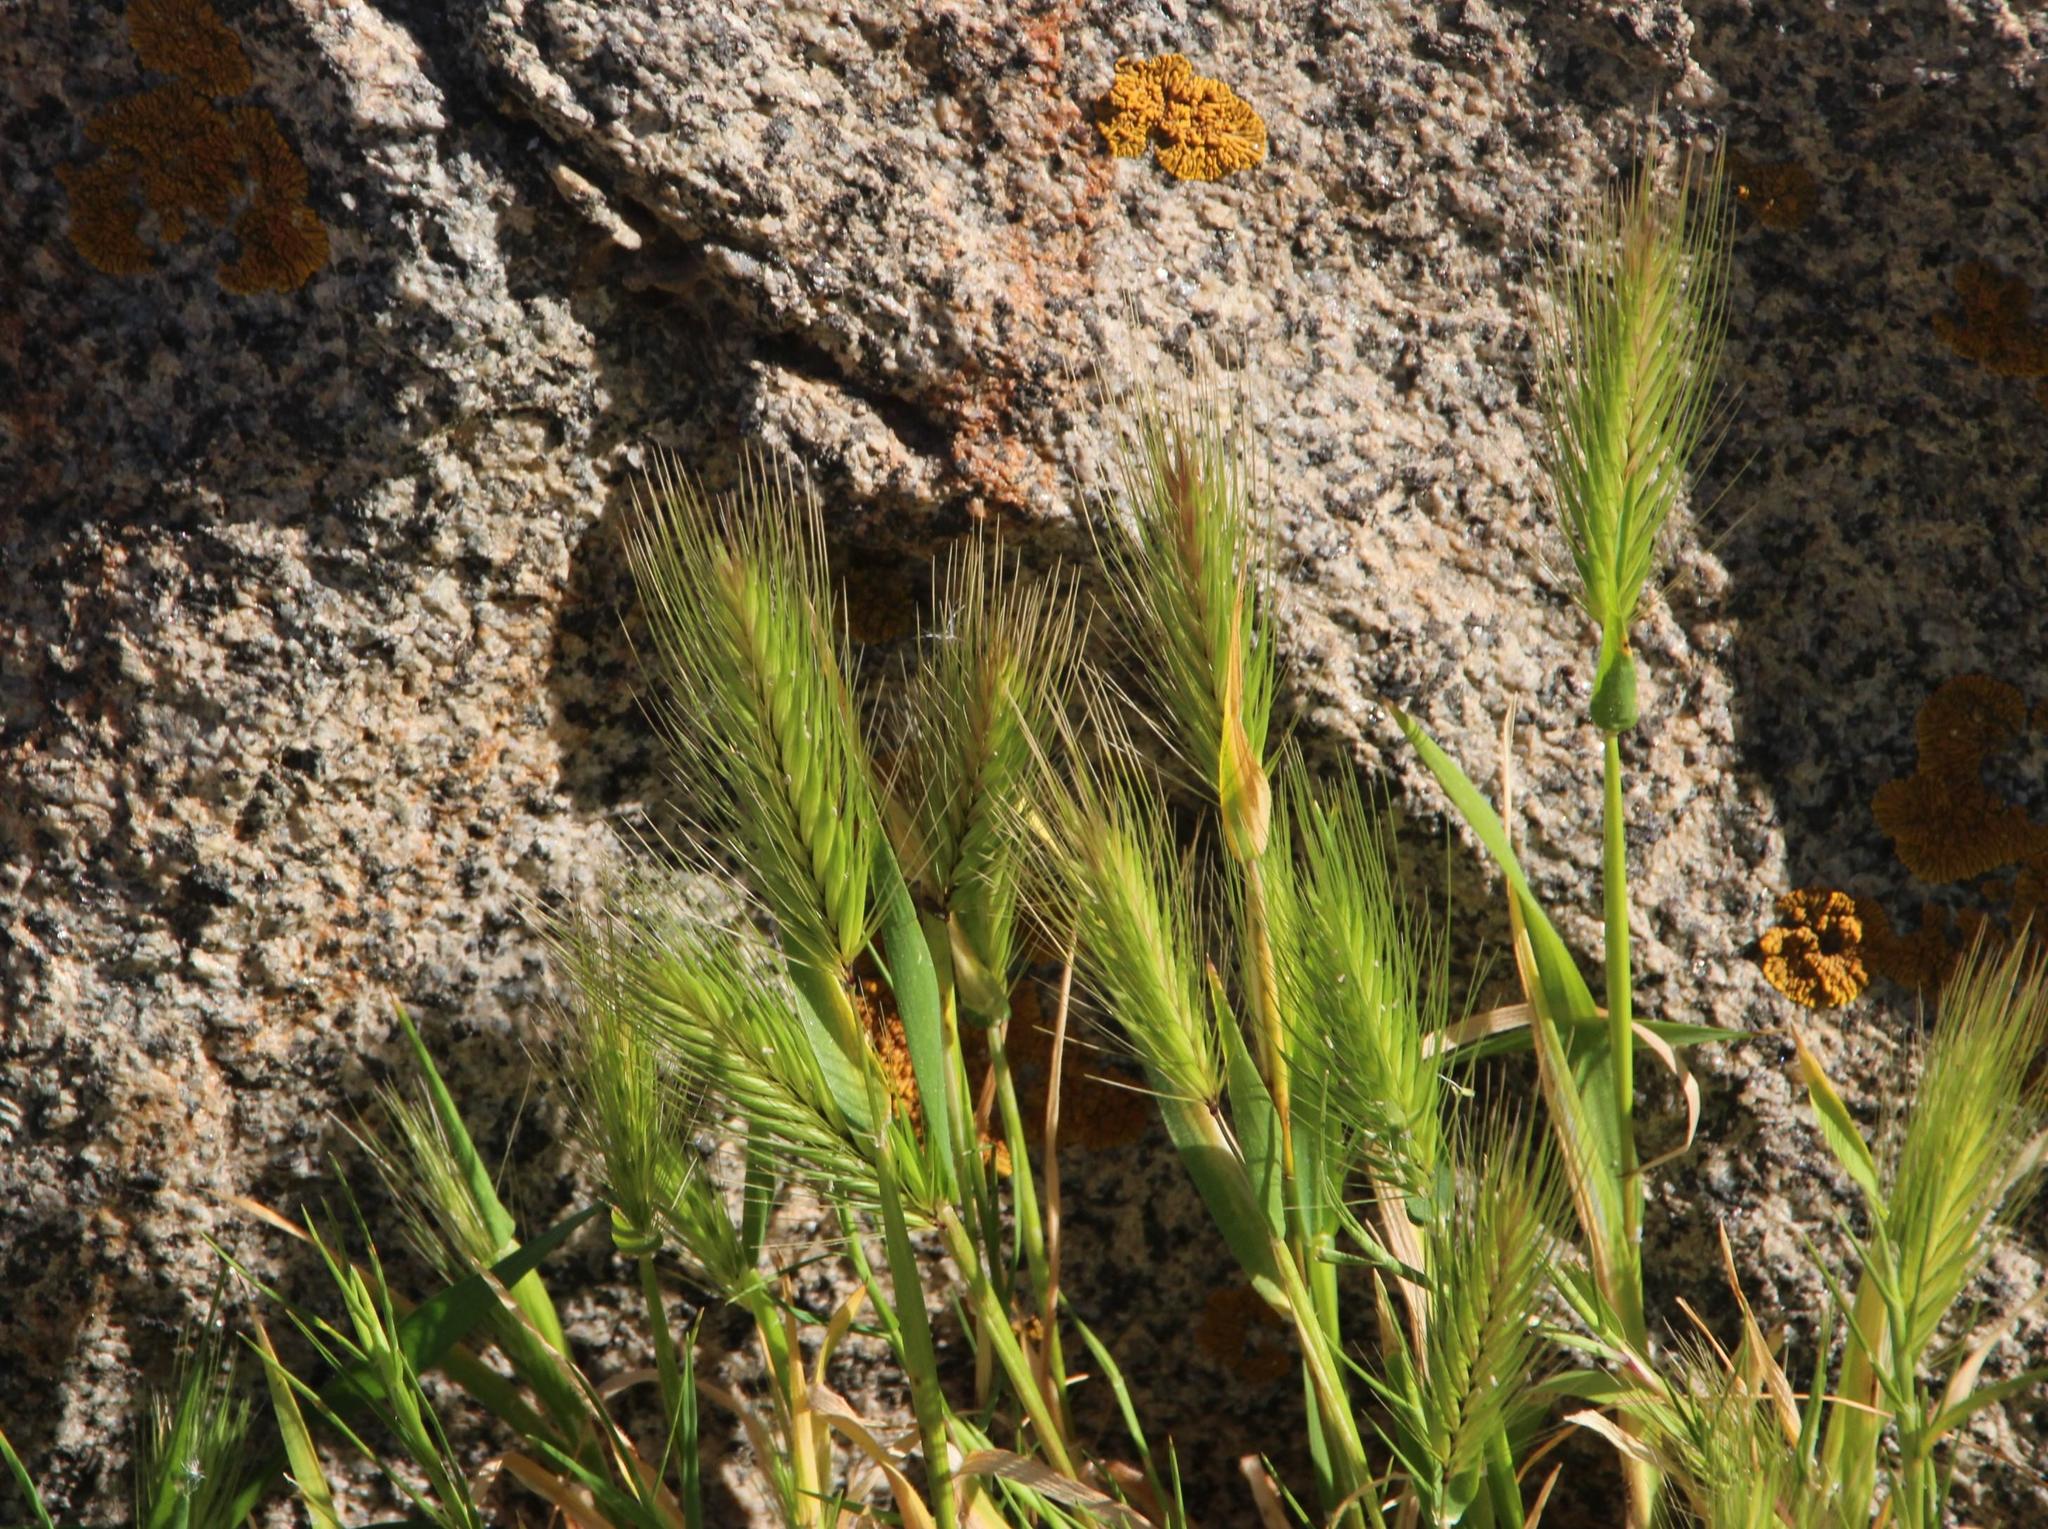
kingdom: Plantae
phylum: Tracheophyta
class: Liliopsida
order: Poales
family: Poaceae
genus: Hordeum
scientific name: Hordeum
